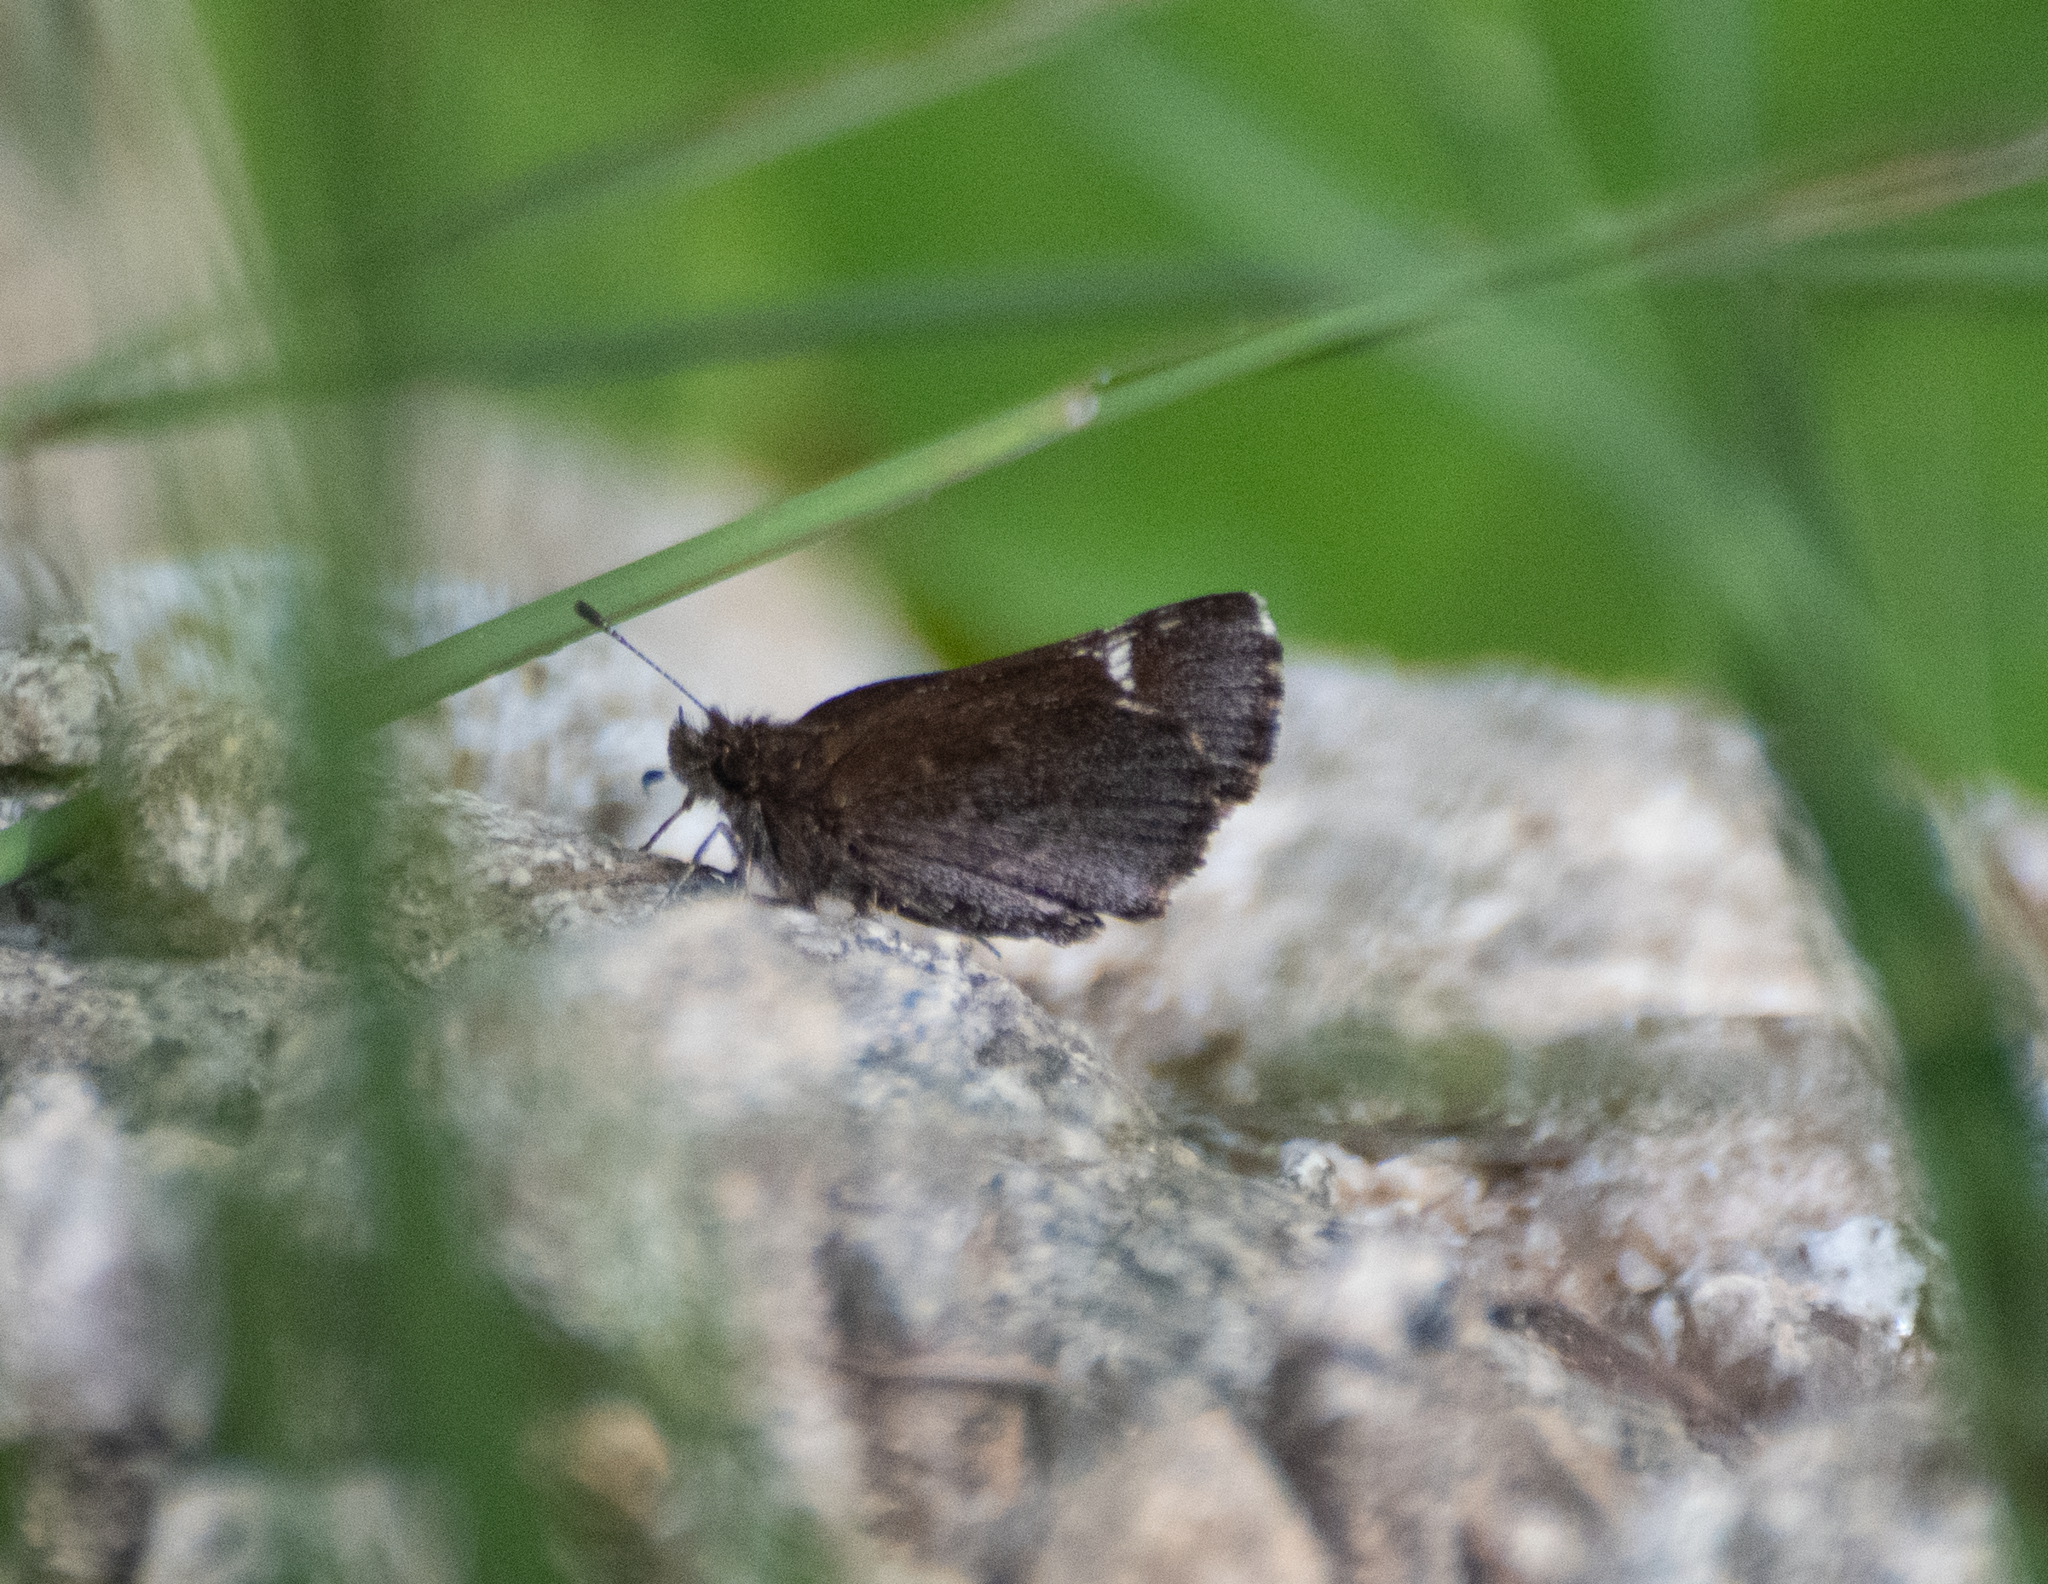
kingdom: Animalia
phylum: Arthropoda
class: Insecta
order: Lepidoptera
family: Hesperiidae
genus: Mastor
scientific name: Mastor vialis
